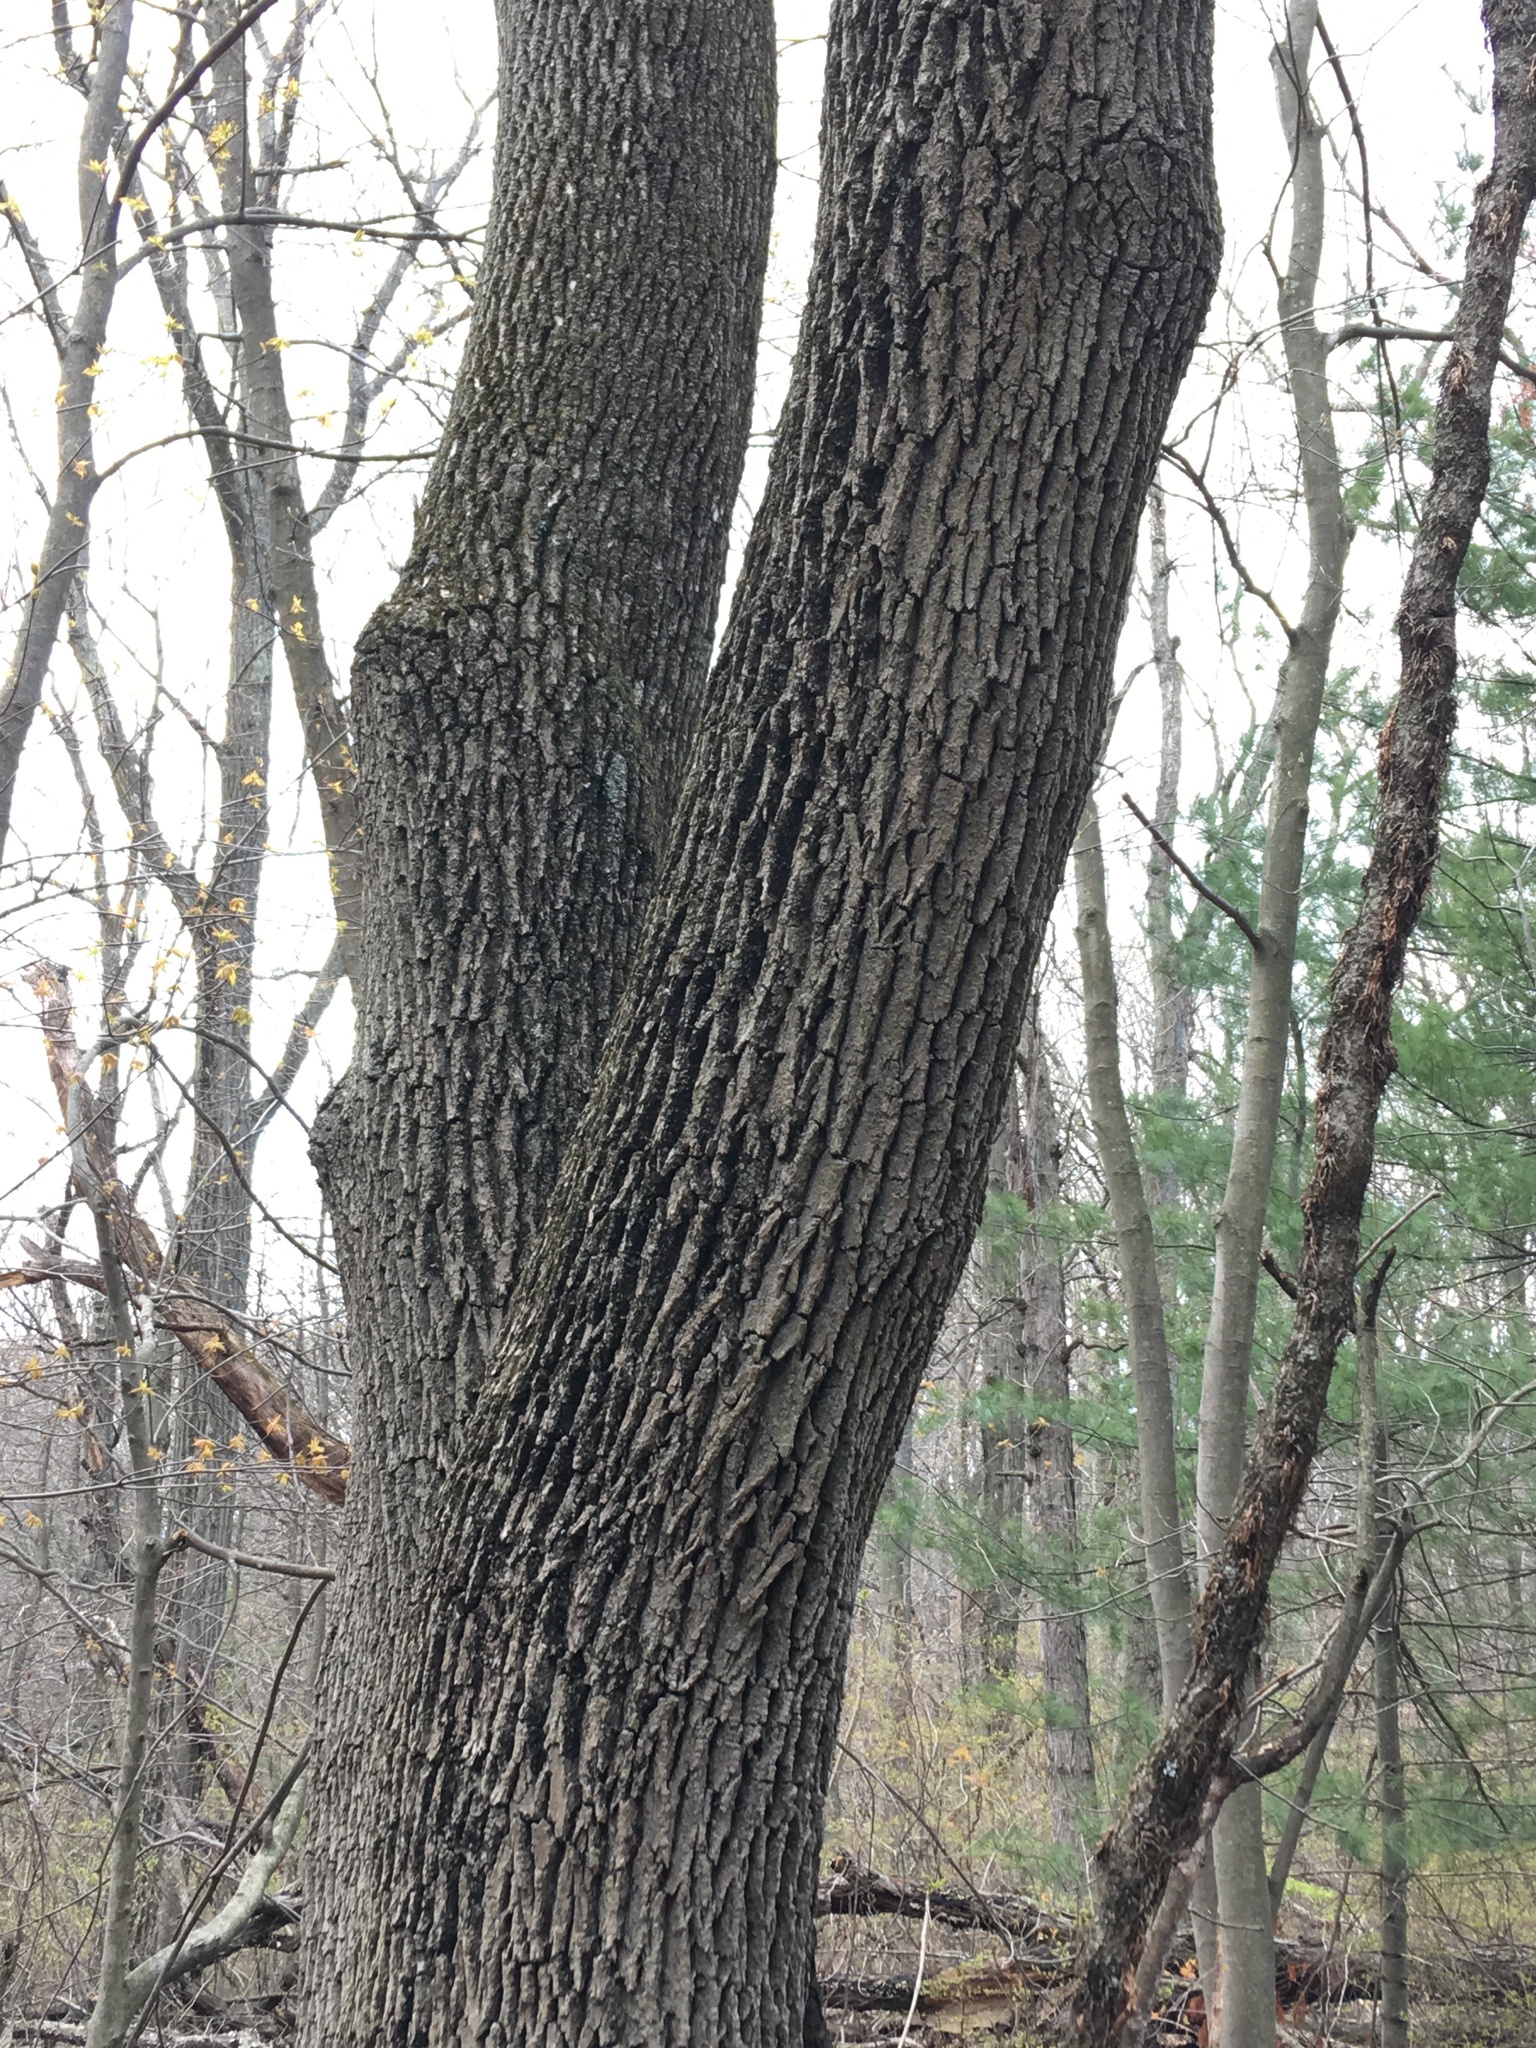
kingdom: Plantae
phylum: Tracheophyta
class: Magnoliopsida
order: Lamiales
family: Oleaceae
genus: Fraxinus
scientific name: Fraxinus americana
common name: White ash
